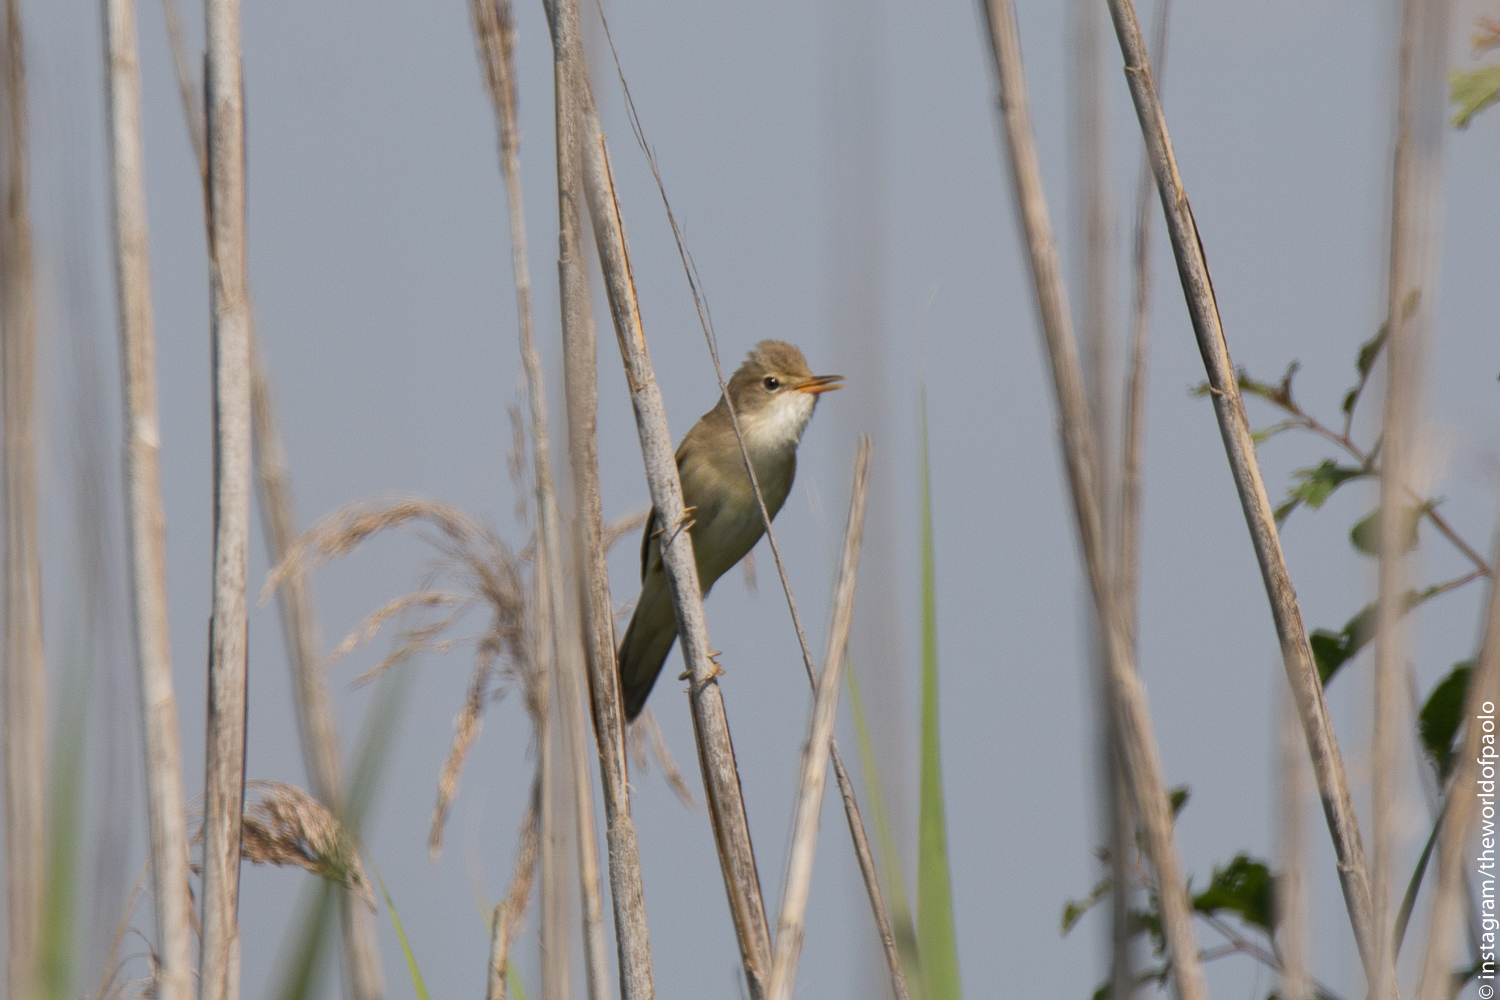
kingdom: Animalia
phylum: Chordata
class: Aves
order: Passeriformes
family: Acrocephalidae
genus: Acrocephalus
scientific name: Acrocephalus scirpaceus
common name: Eurasian reed warbler
